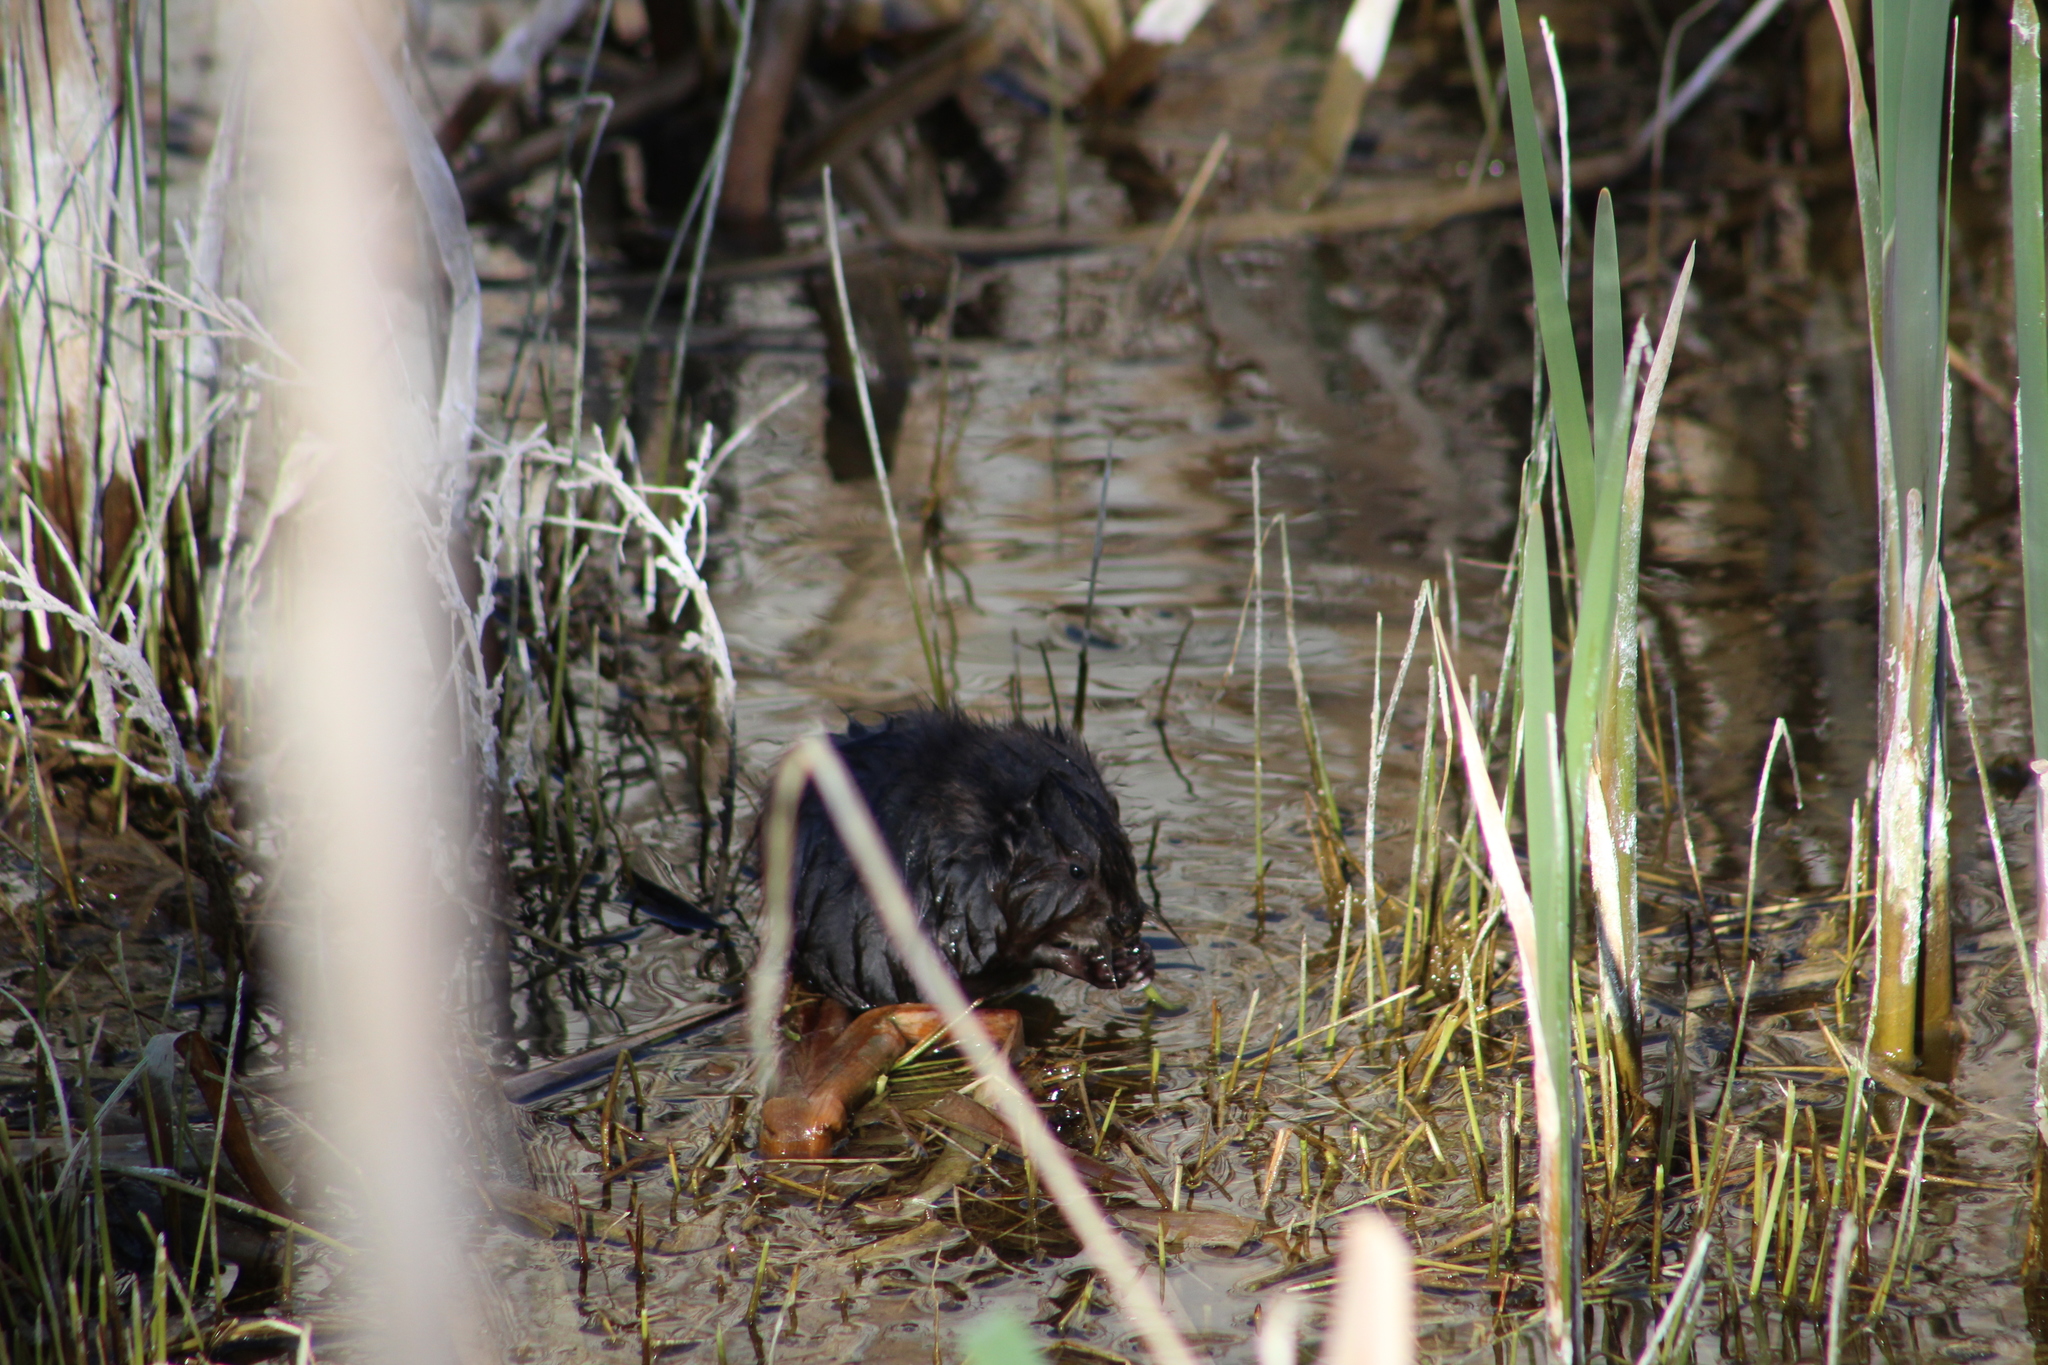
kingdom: Animalia
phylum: Chordata
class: Mammalia
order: Rodentia
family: Cricetidae
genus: Ondatra
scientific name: Ondatra zibethicus
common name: Muskrat
